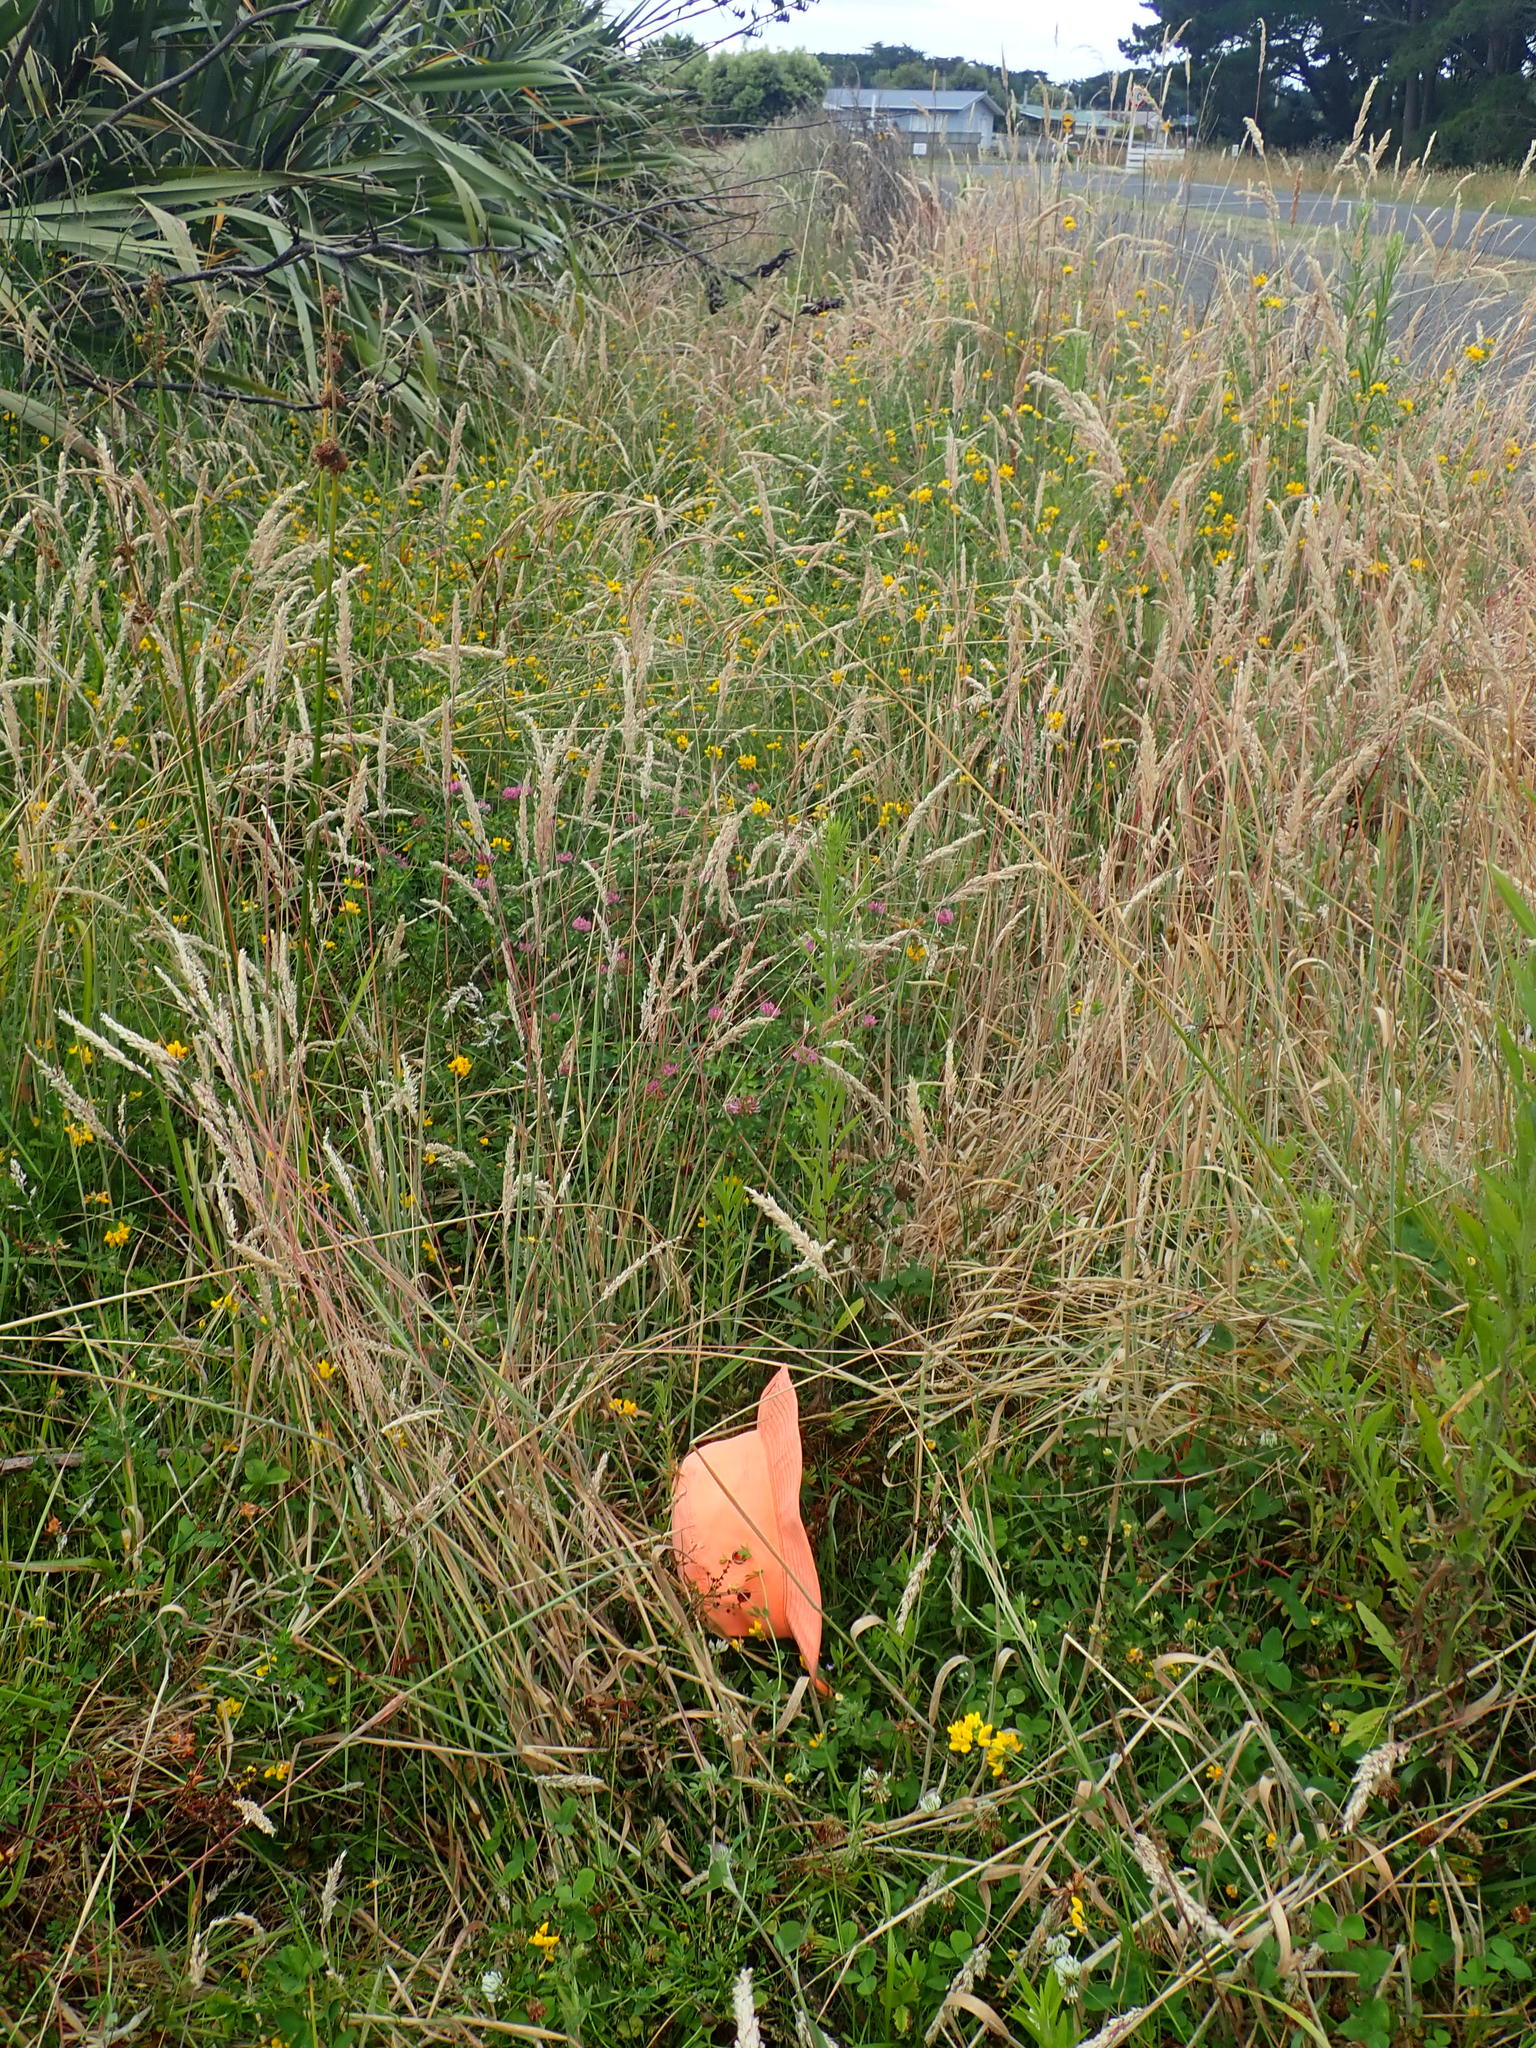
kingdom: Plantae
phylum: Tracheophyta
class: Magnoliopsida
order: Asterales
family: Campanulaceae
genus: Lobelia
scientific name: Lobelia anceps
